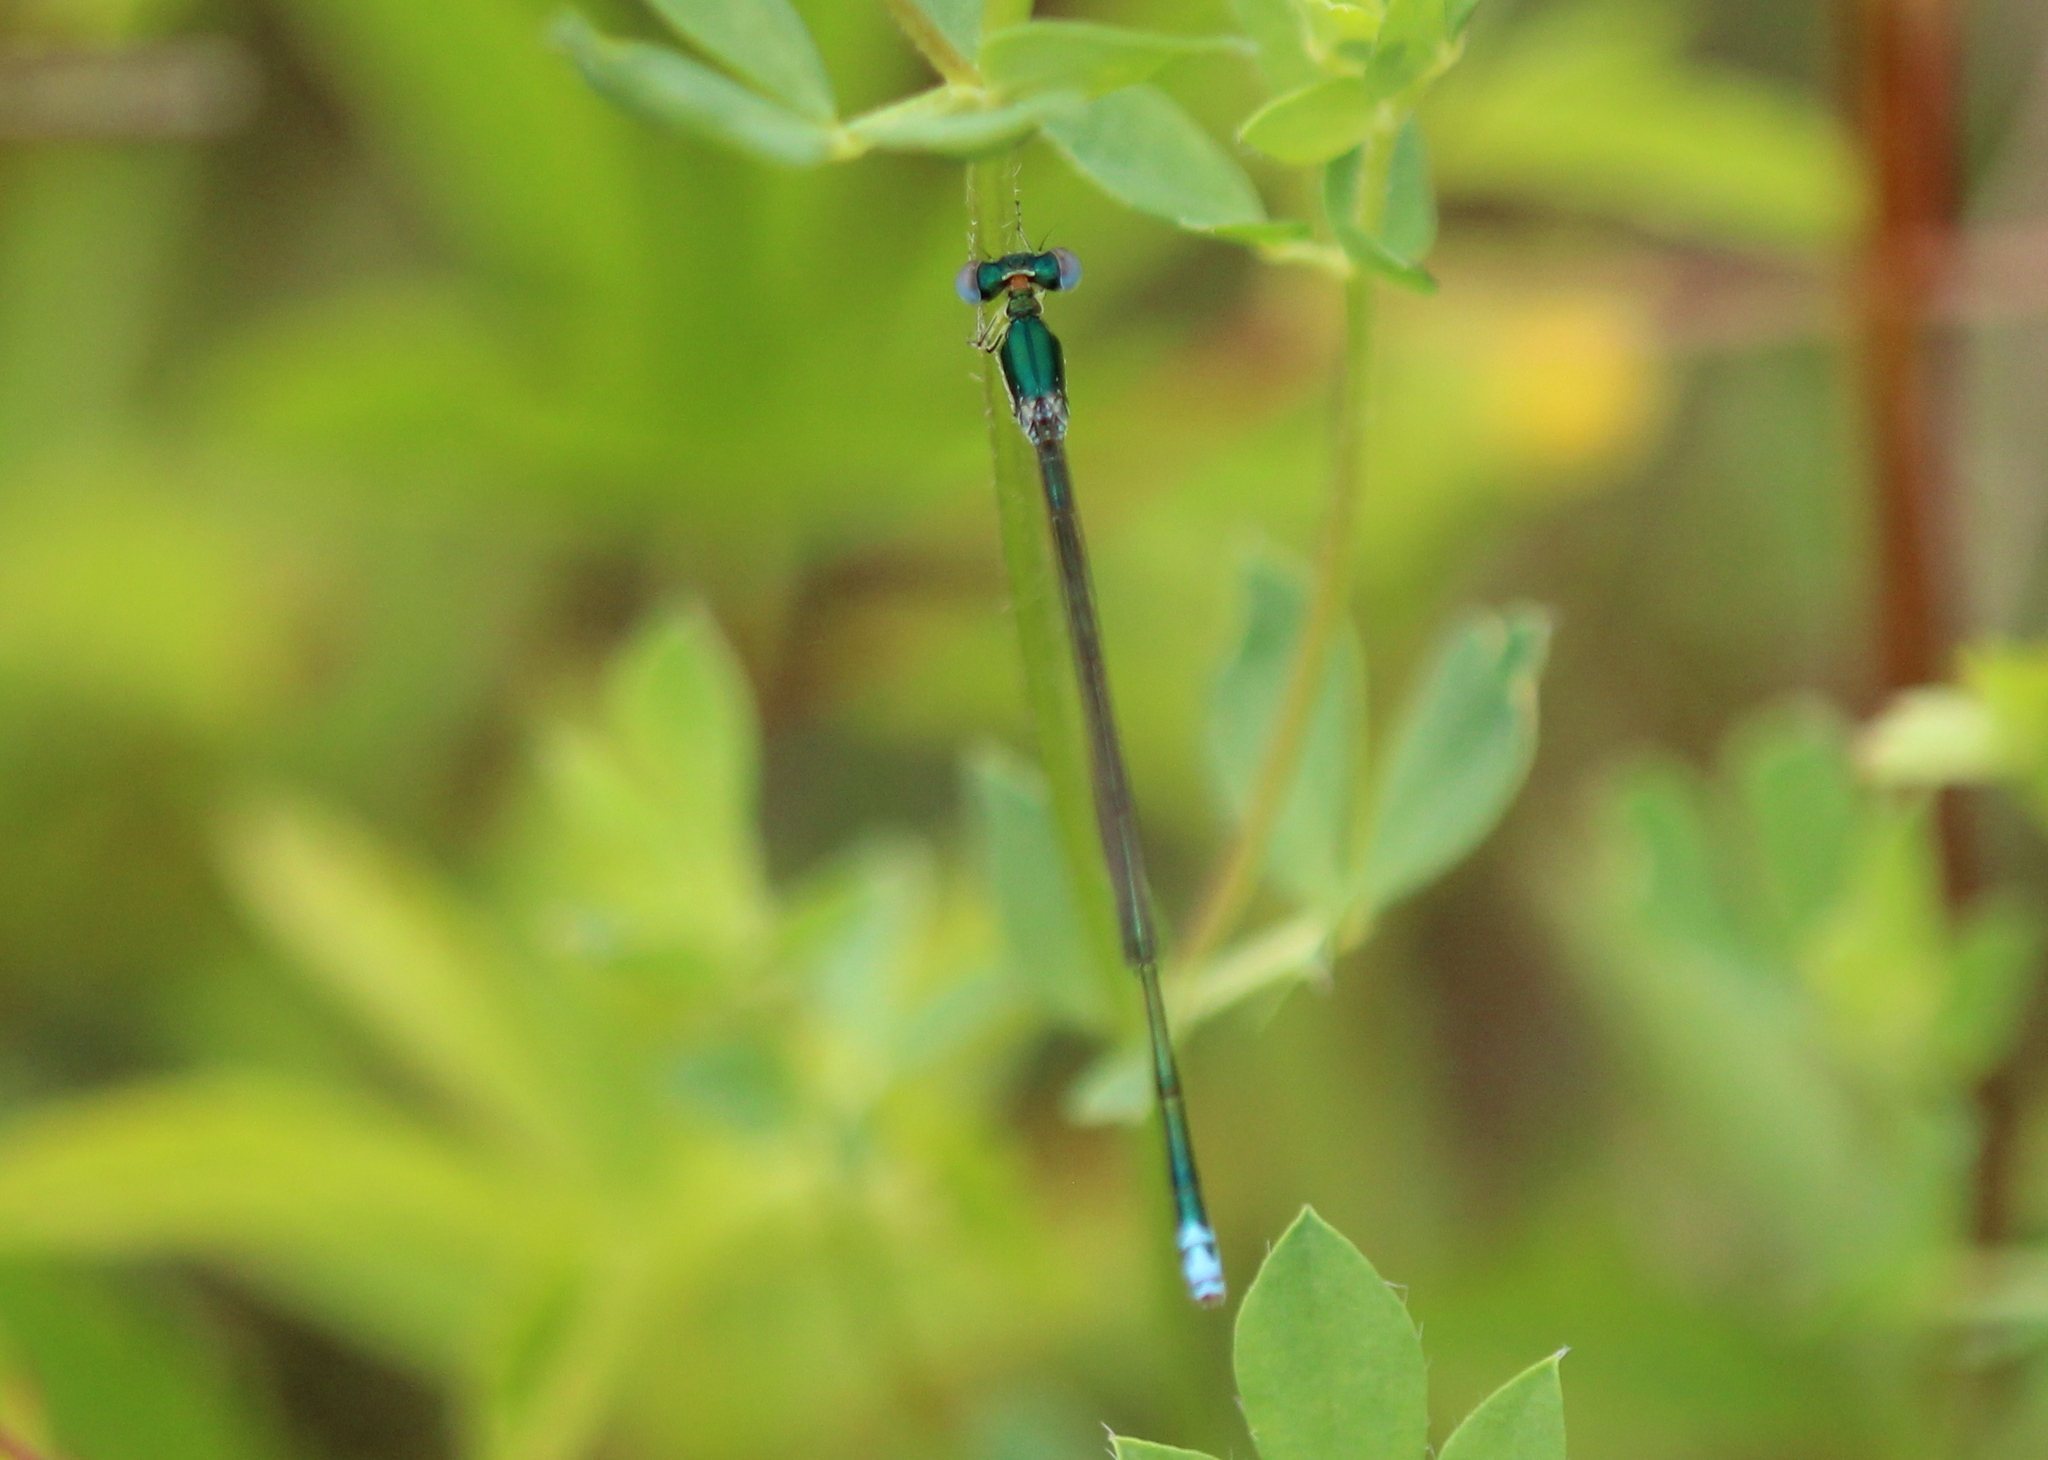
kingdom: Animalia
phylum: Arthropoda
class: Insecta
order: Odonata
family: Coenagrionidae
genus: Nehalennia
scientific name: Nehalennia irene
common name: Sedge sprite
